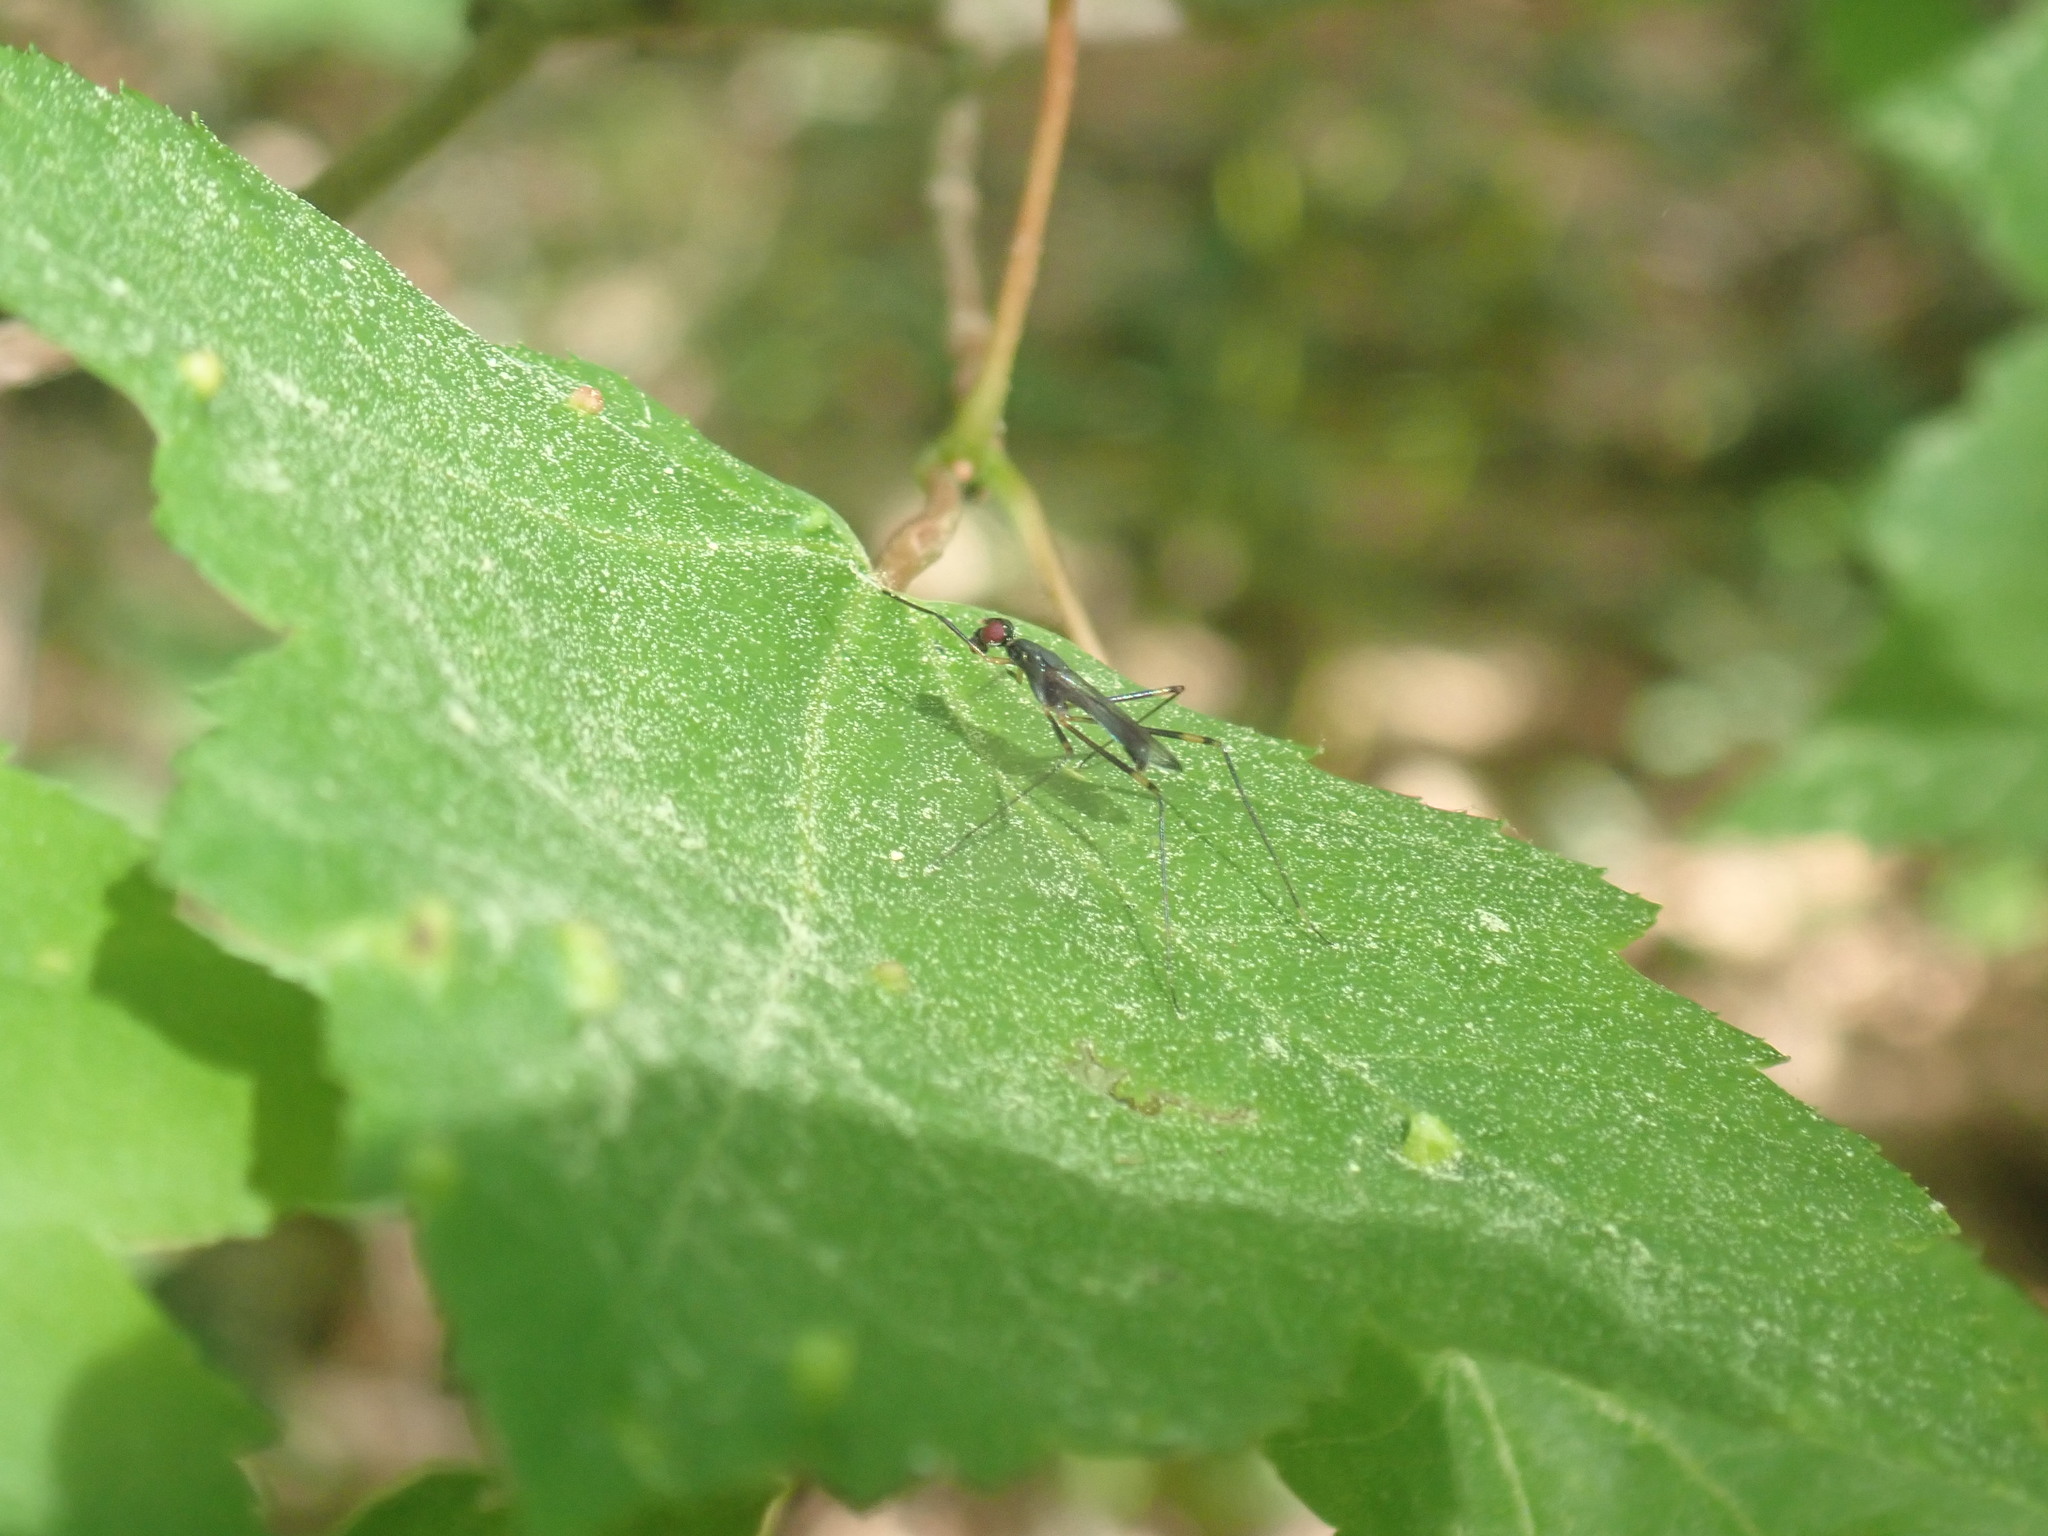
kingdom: Animalia
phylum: Arthropoda
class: Insecta
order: Diptera
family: Micropezidae
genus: Rainieria
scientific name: Rainieria antennaepes
